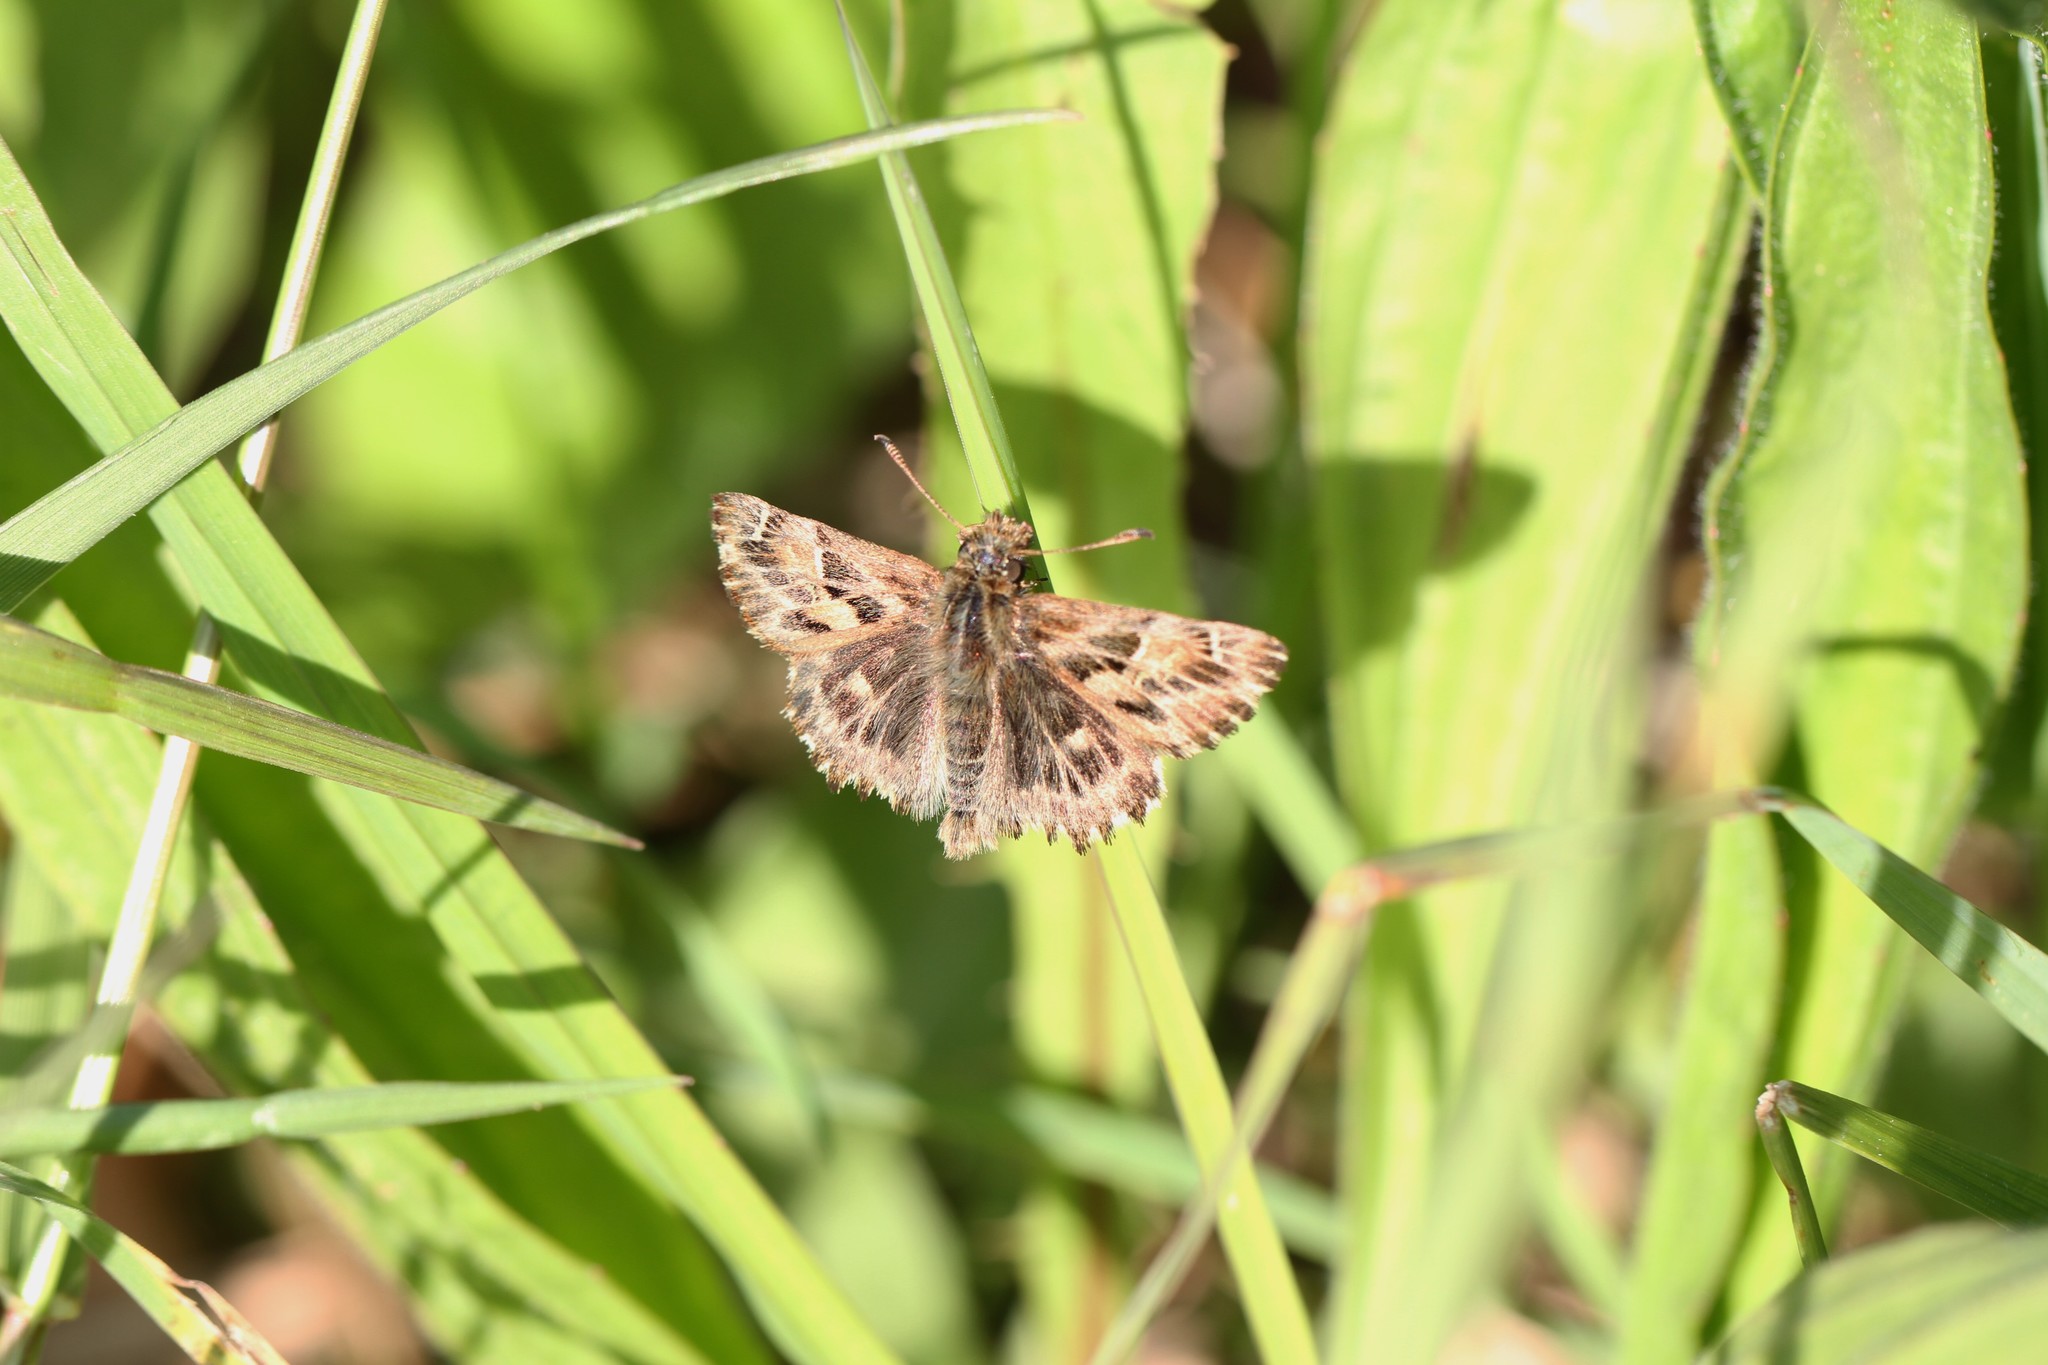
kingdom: Animalia
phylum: Arthropoda
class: Insecta
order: Lepidoptera
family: Hesperiidae
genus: Carcharodus
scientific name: Carcharodus alceae
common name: Mallow skipper
